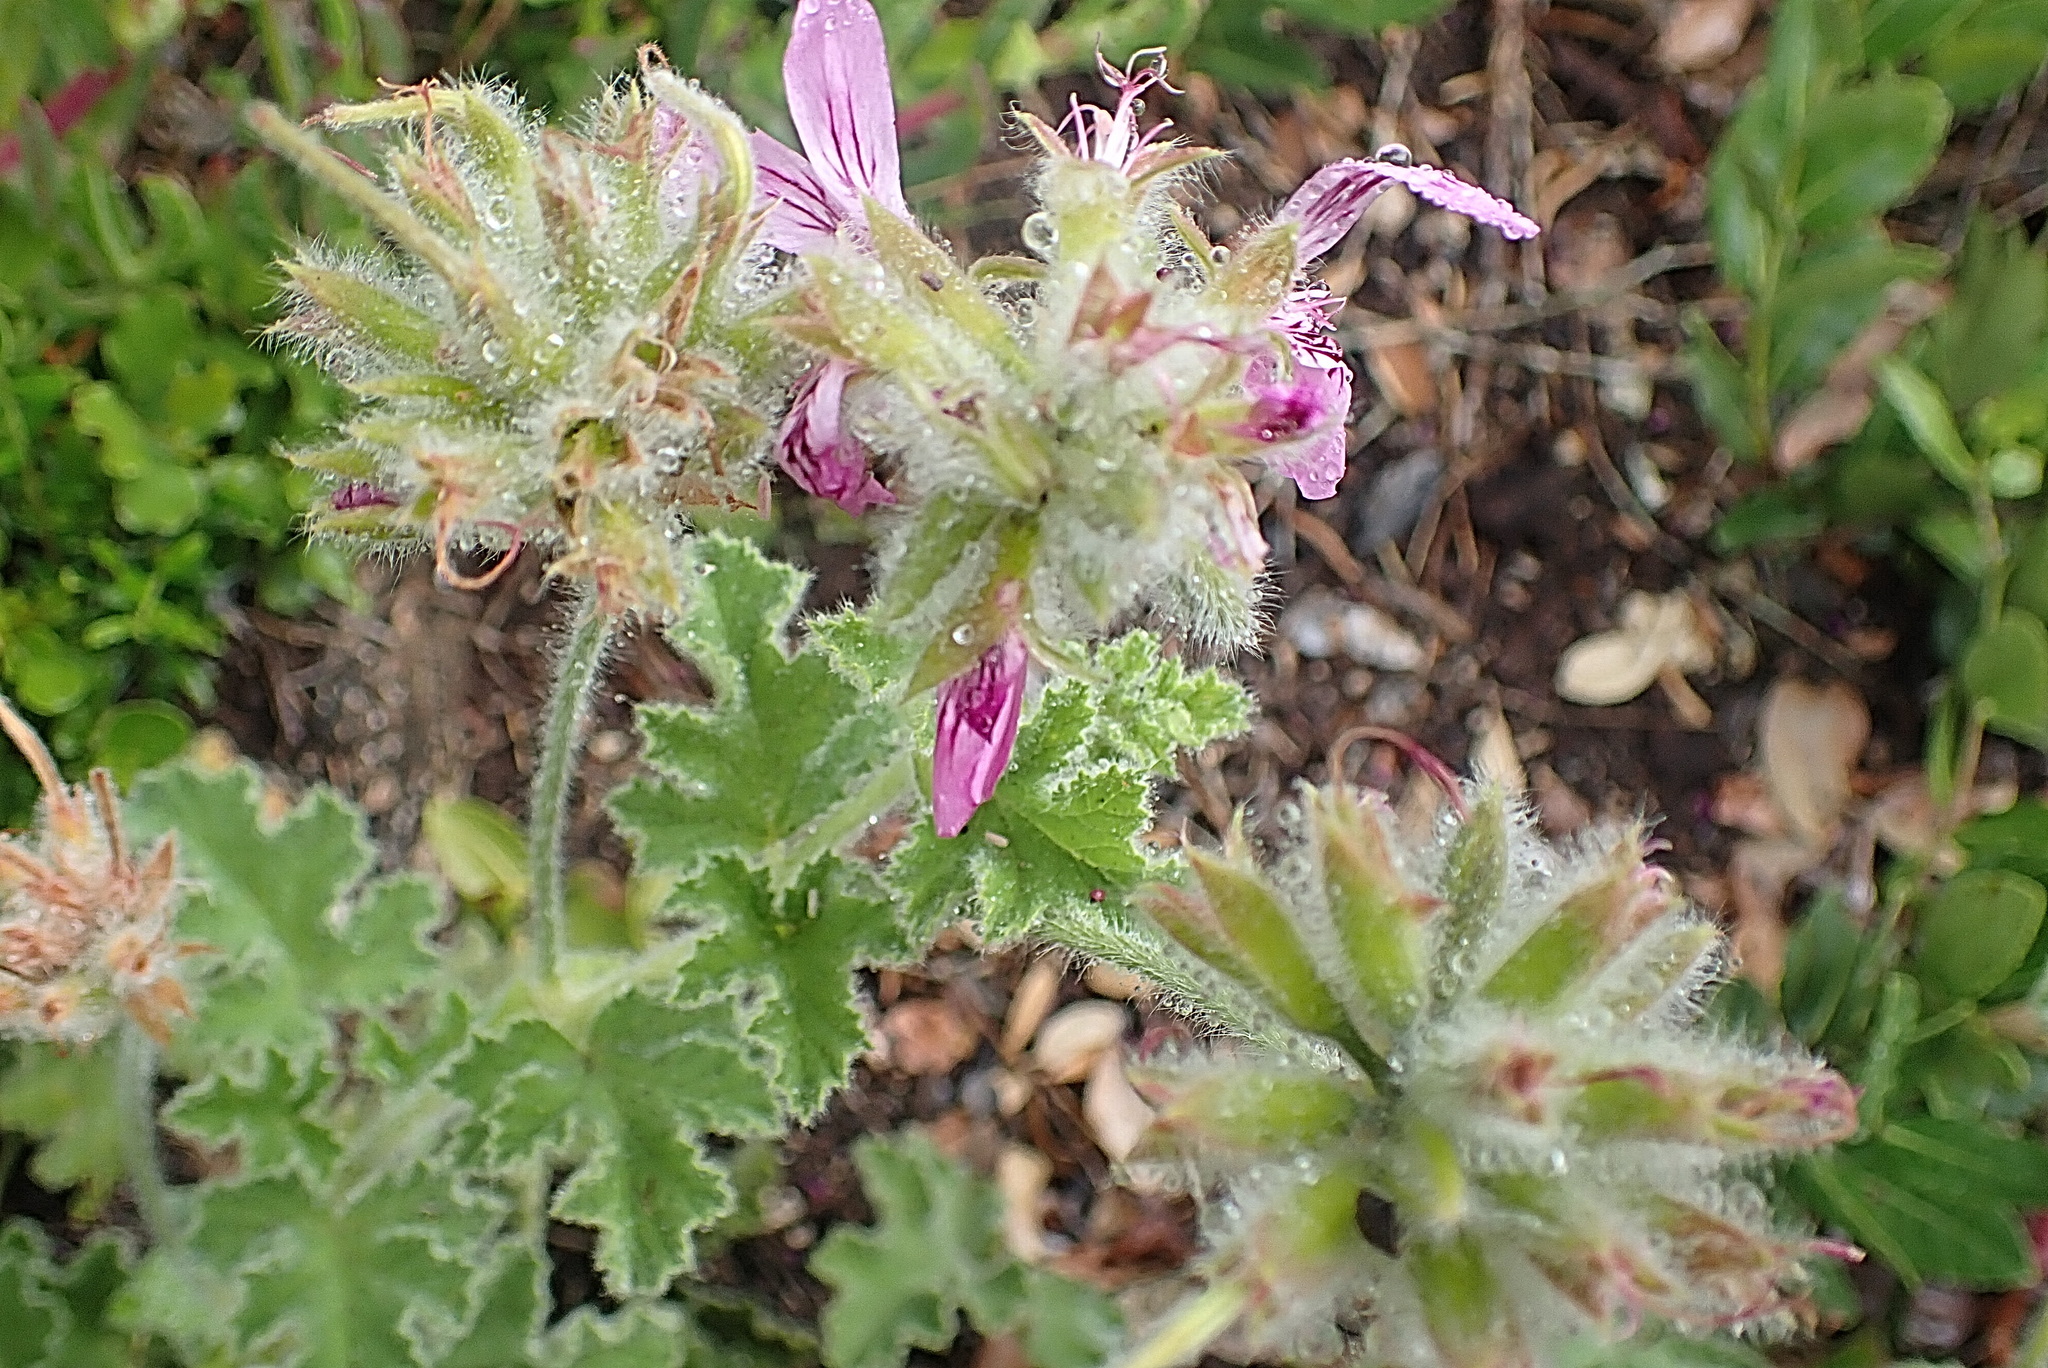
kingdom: Plantae
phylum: Tracheophyta
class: Magnoliopsida
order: Geraniales
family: Geraniaceae
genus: Pelargonium
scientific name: Pelargonium capitatum
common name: Rose scented geranium
